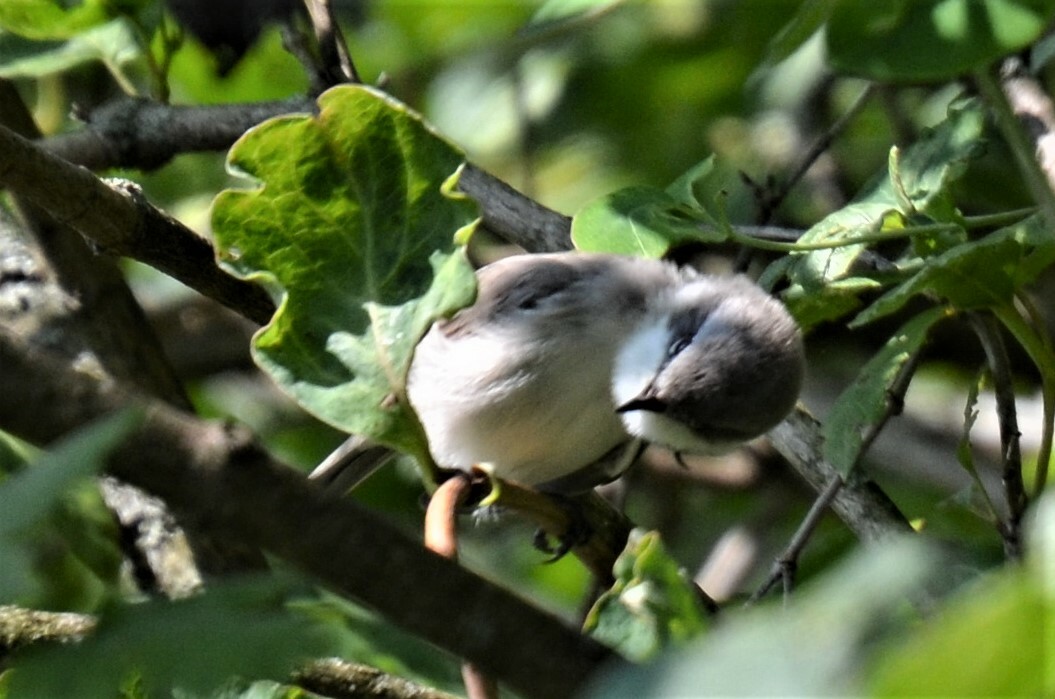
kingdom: Animalia
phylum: Chordata
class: Aves
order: Passeriformes
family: Sylviidae
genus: Sylvia
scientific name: Sylvia curruca
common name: Lesser whitethroat
